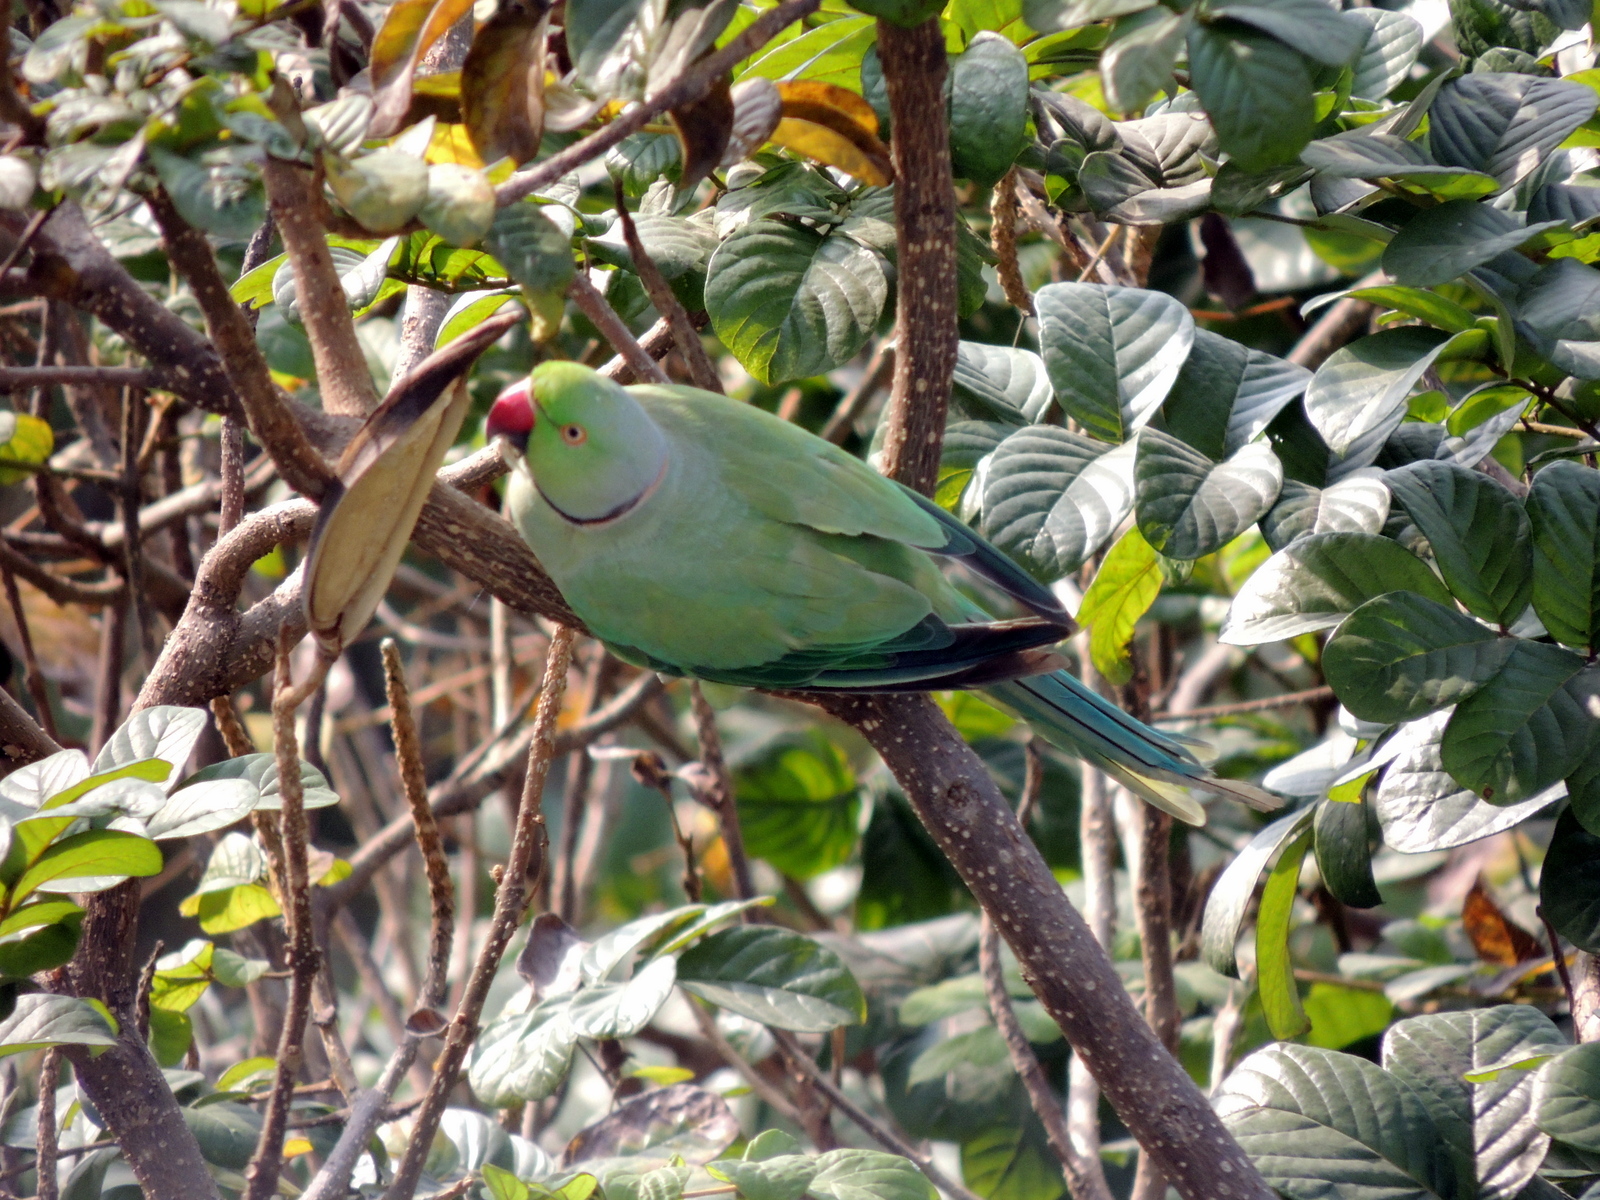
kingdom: Animalia
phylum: Chordata
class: Aves
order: Psittaciformes
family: Psittacidae
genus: Psittacula
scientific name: Psittacula krameri
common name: Rose-ringed parakeet
